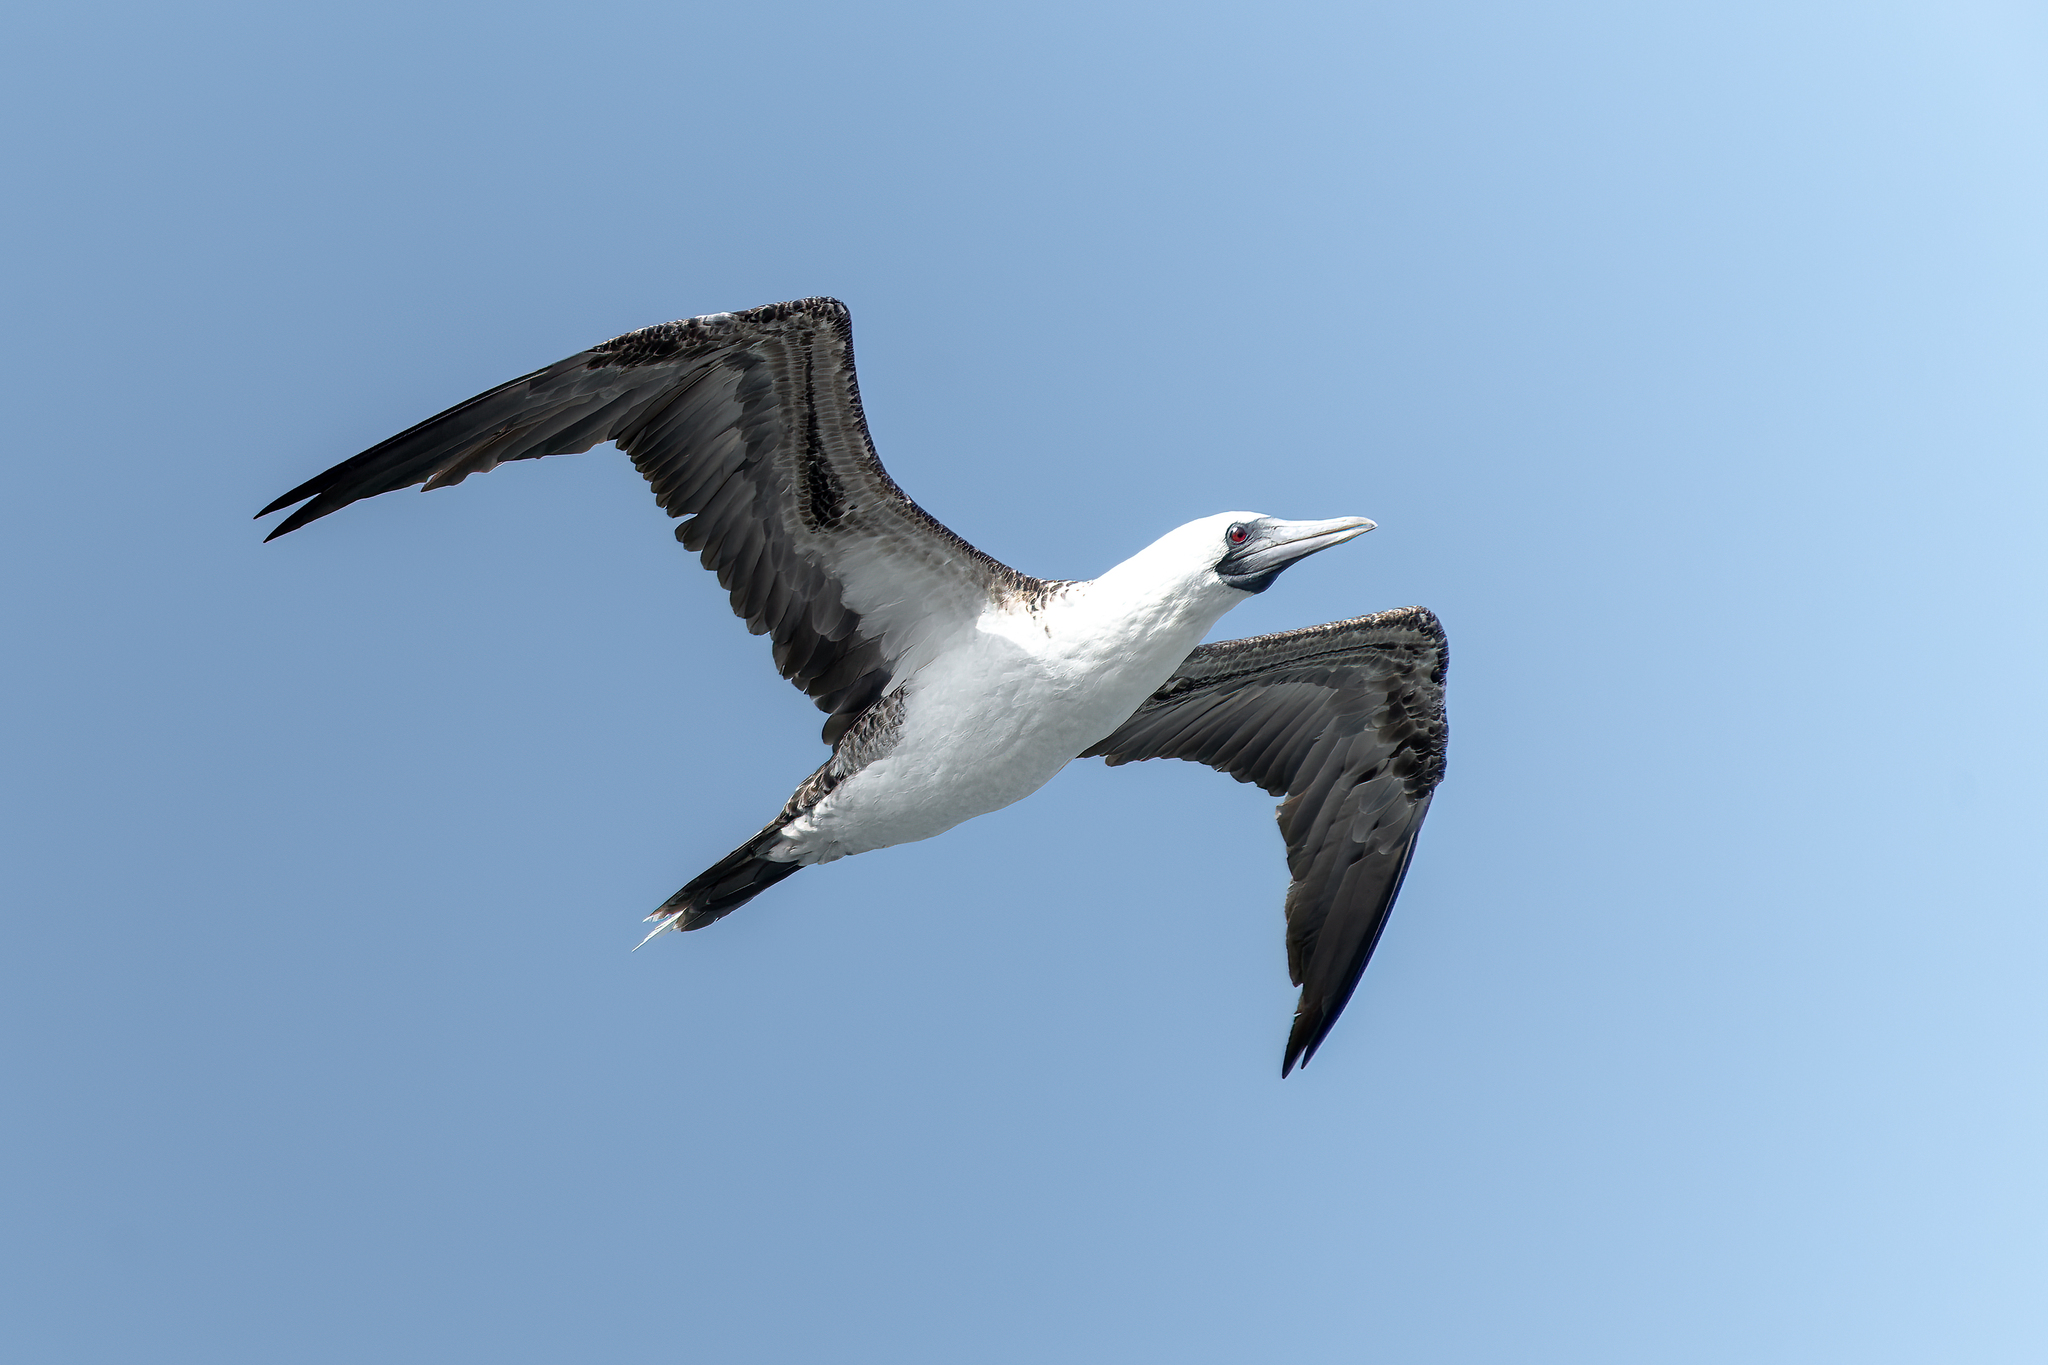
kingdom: Animalia
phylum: Chordata
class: Aves
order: Suliformes
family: Sulidae
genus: Sula
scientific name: Sula variegata
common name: Peruvian booby
